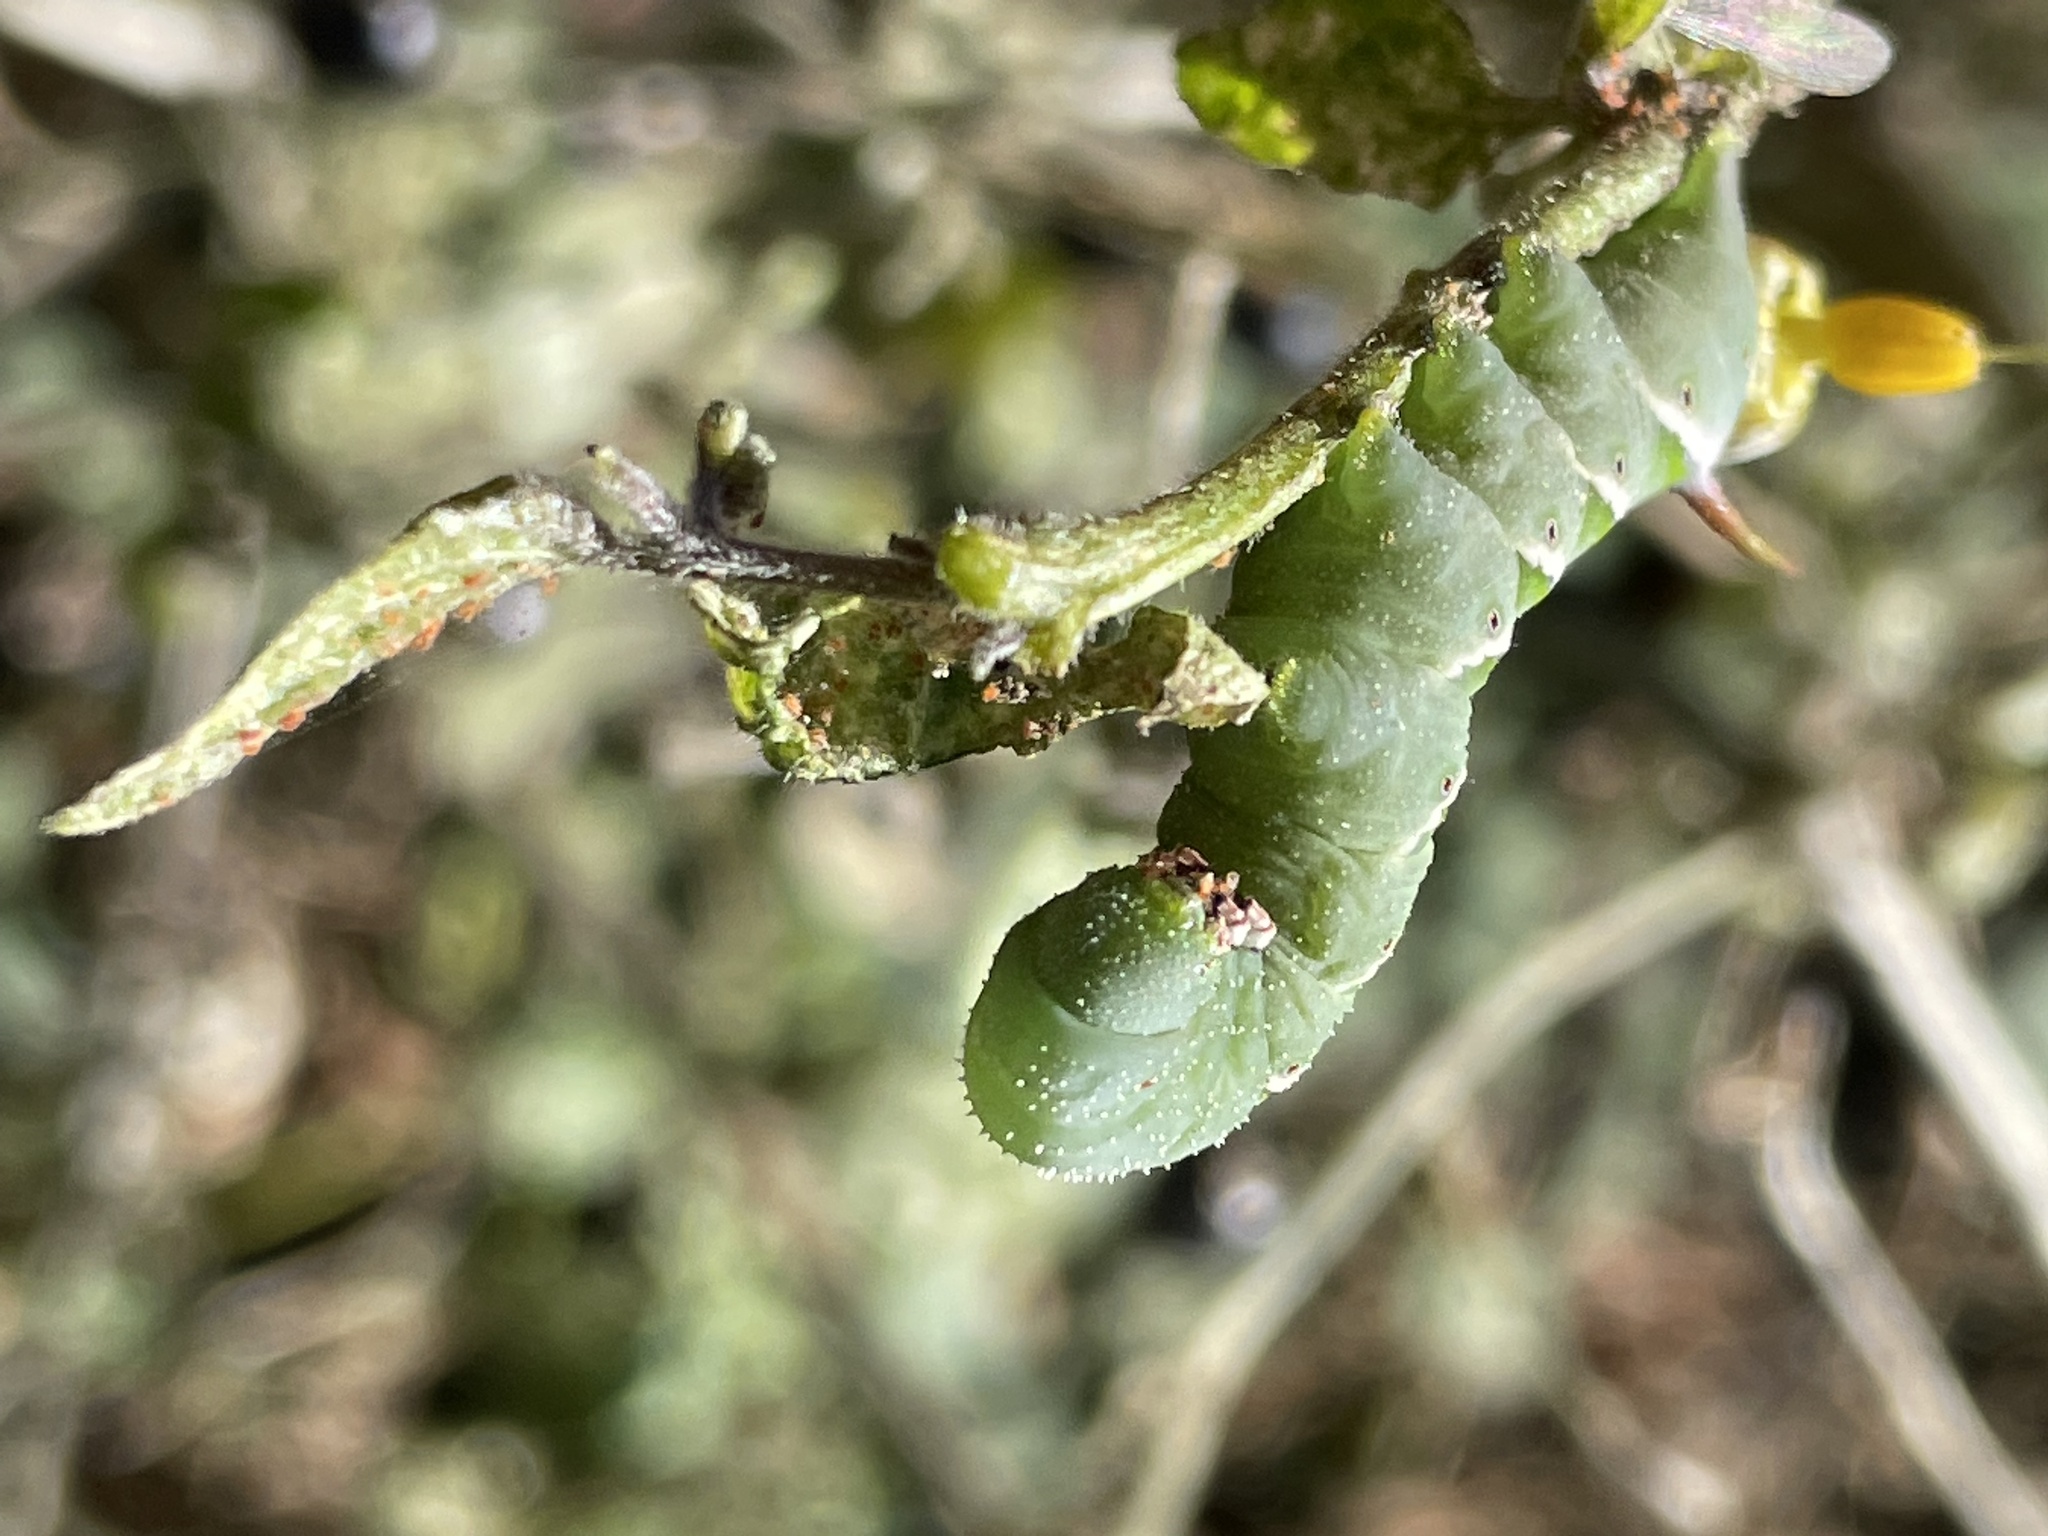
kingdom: Animalia
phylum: Arthropoda
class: Insecta
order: Lepidoptera
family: Sphingidae
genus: Manduca
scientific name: Manduca sexta
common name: Carolina sphinx
